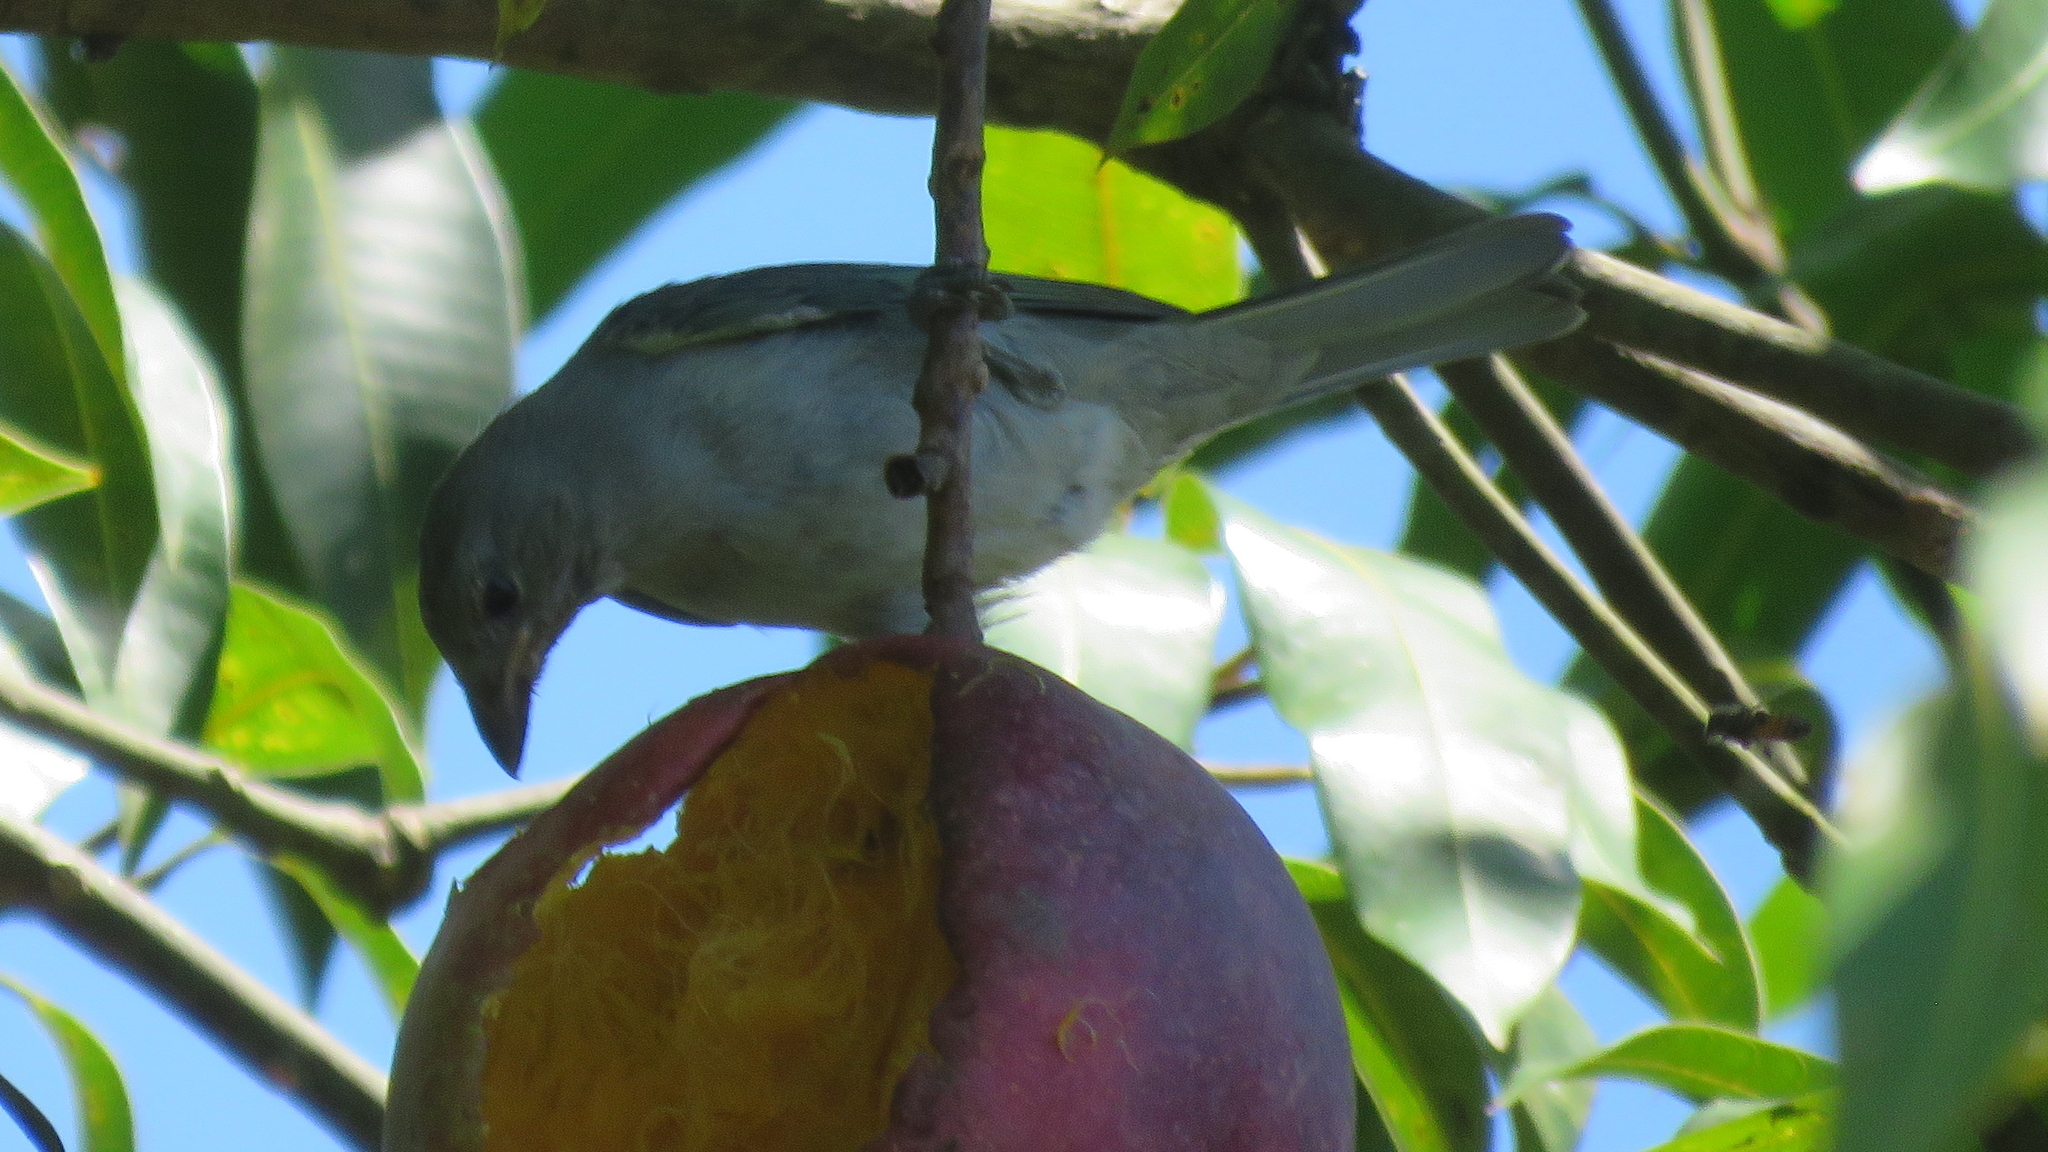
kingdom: Animalia
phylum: Chordata
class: Aves
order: Passeriformes
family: Thraupidae
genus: Thraupis
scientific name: Thraupis sayaca
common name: Sayaca tanager
